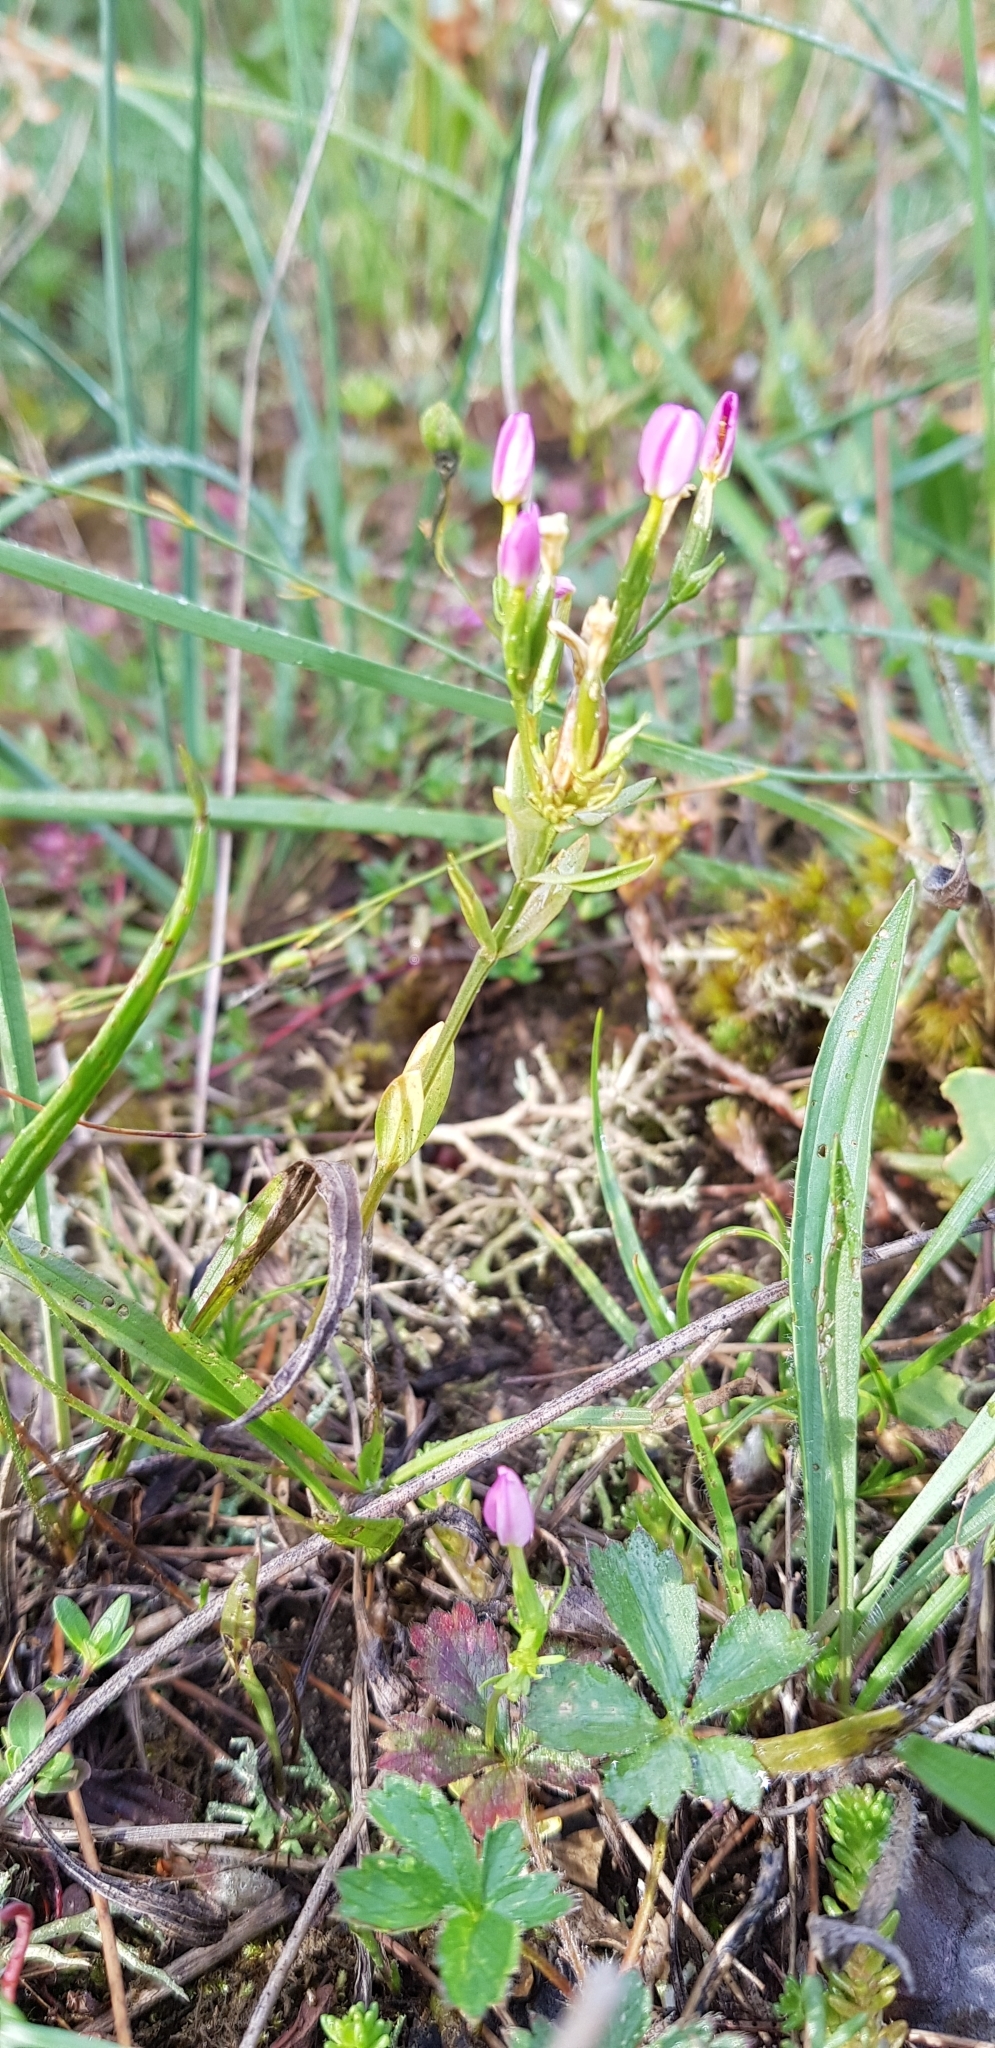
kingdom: Plantae
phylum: Tracheophyta
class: Magnoliopsida
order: Gentianales
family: Gentianaceae
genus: Centaurium
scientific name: Centaurium erythraea
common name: Common centaury
